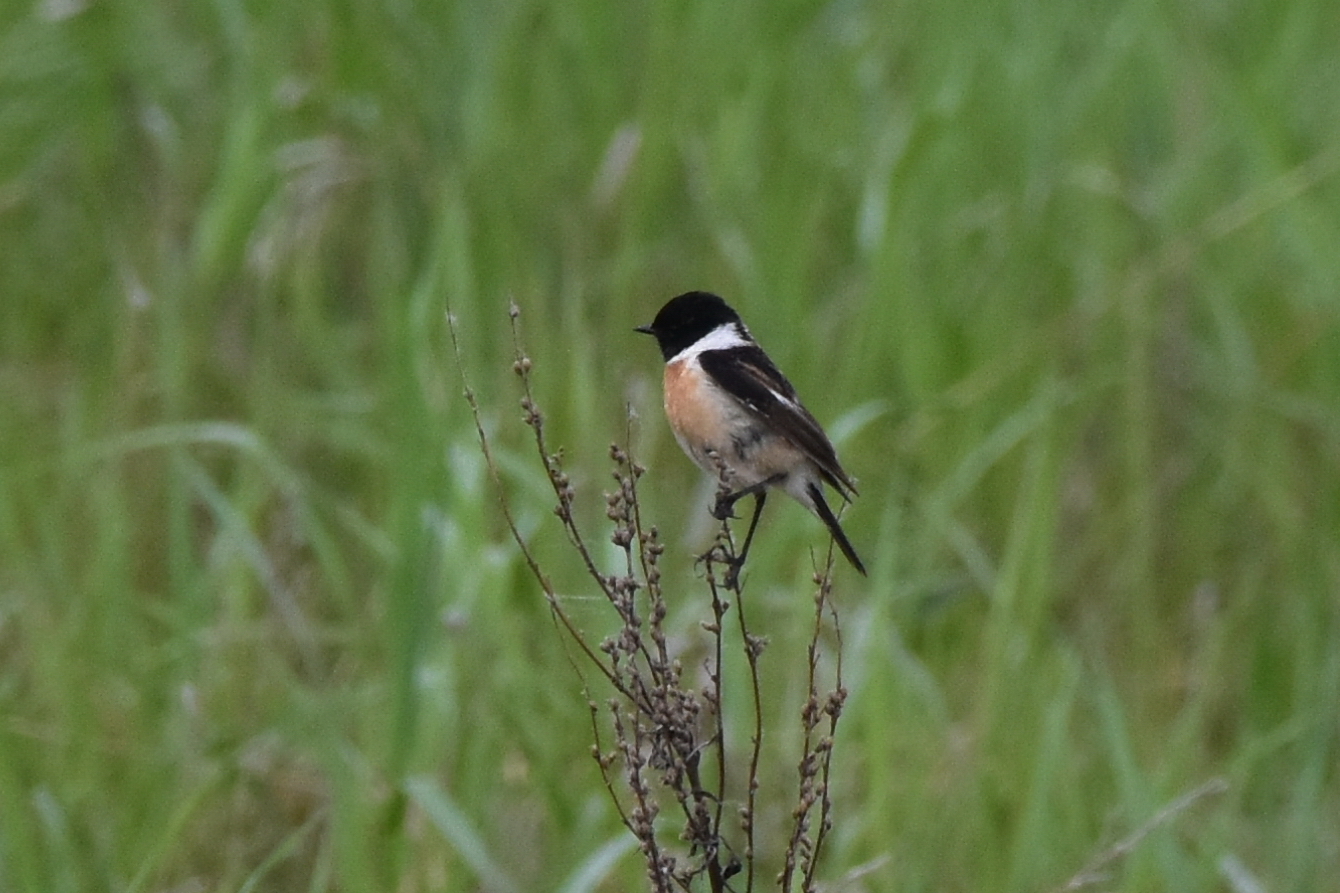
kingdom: Animalia
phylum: Chordata
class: Aves
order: Passeriformes
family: Muscicapidae
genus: Saxicola
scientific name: Saxicola maurus
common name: Siberian stonechat
